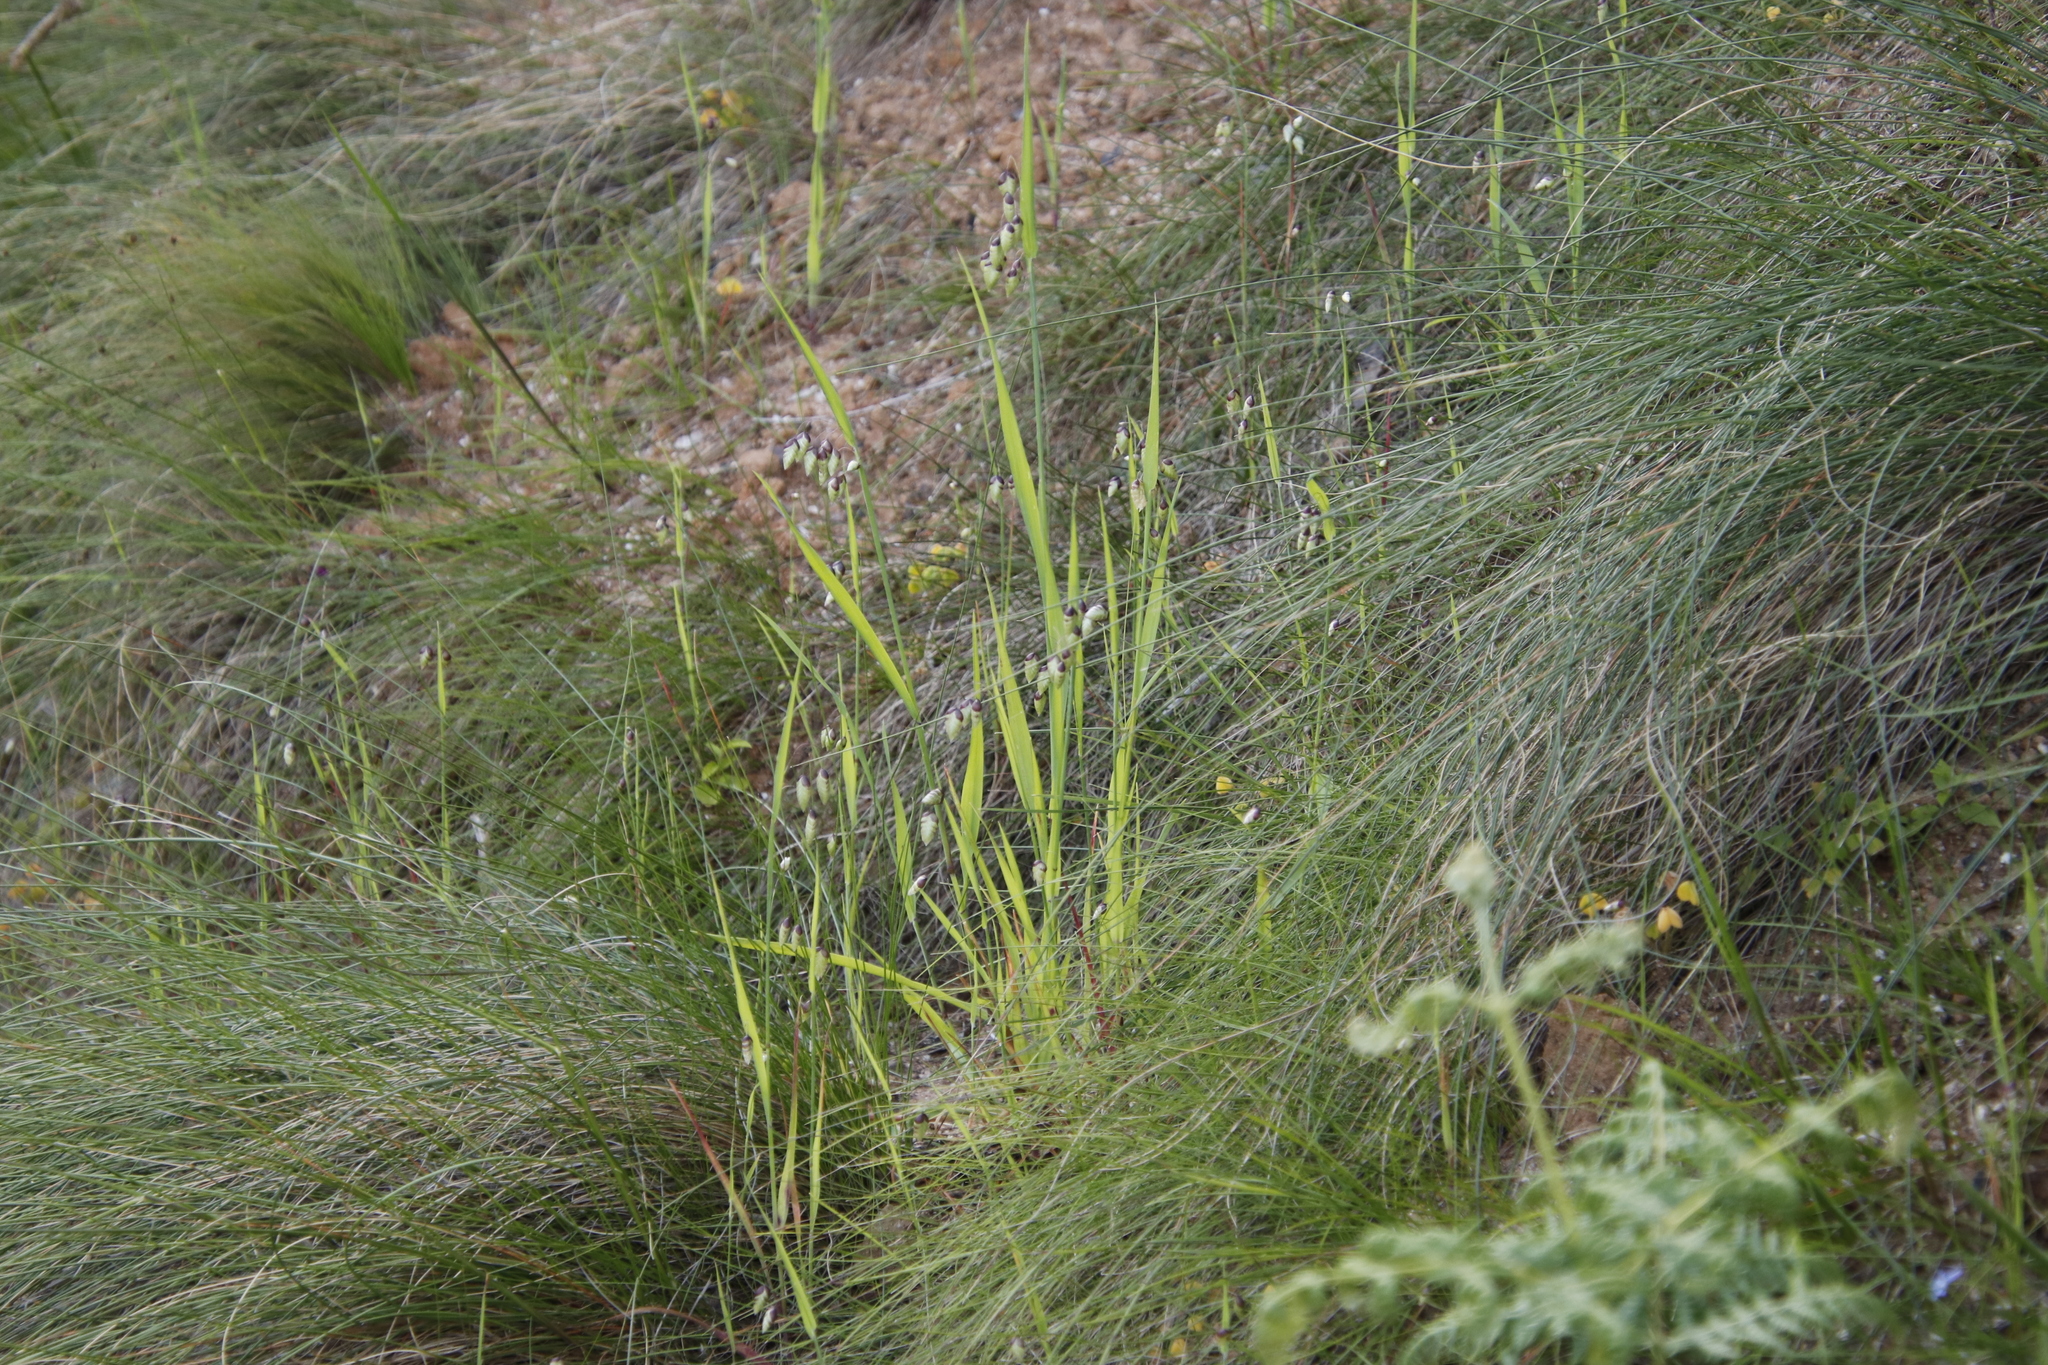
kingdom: Plantae
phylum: Tracheophyta
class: Liliopsida
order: Poales
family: Poaceae
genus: Briza
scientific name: Briza maxima
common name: Big quakinggrass
